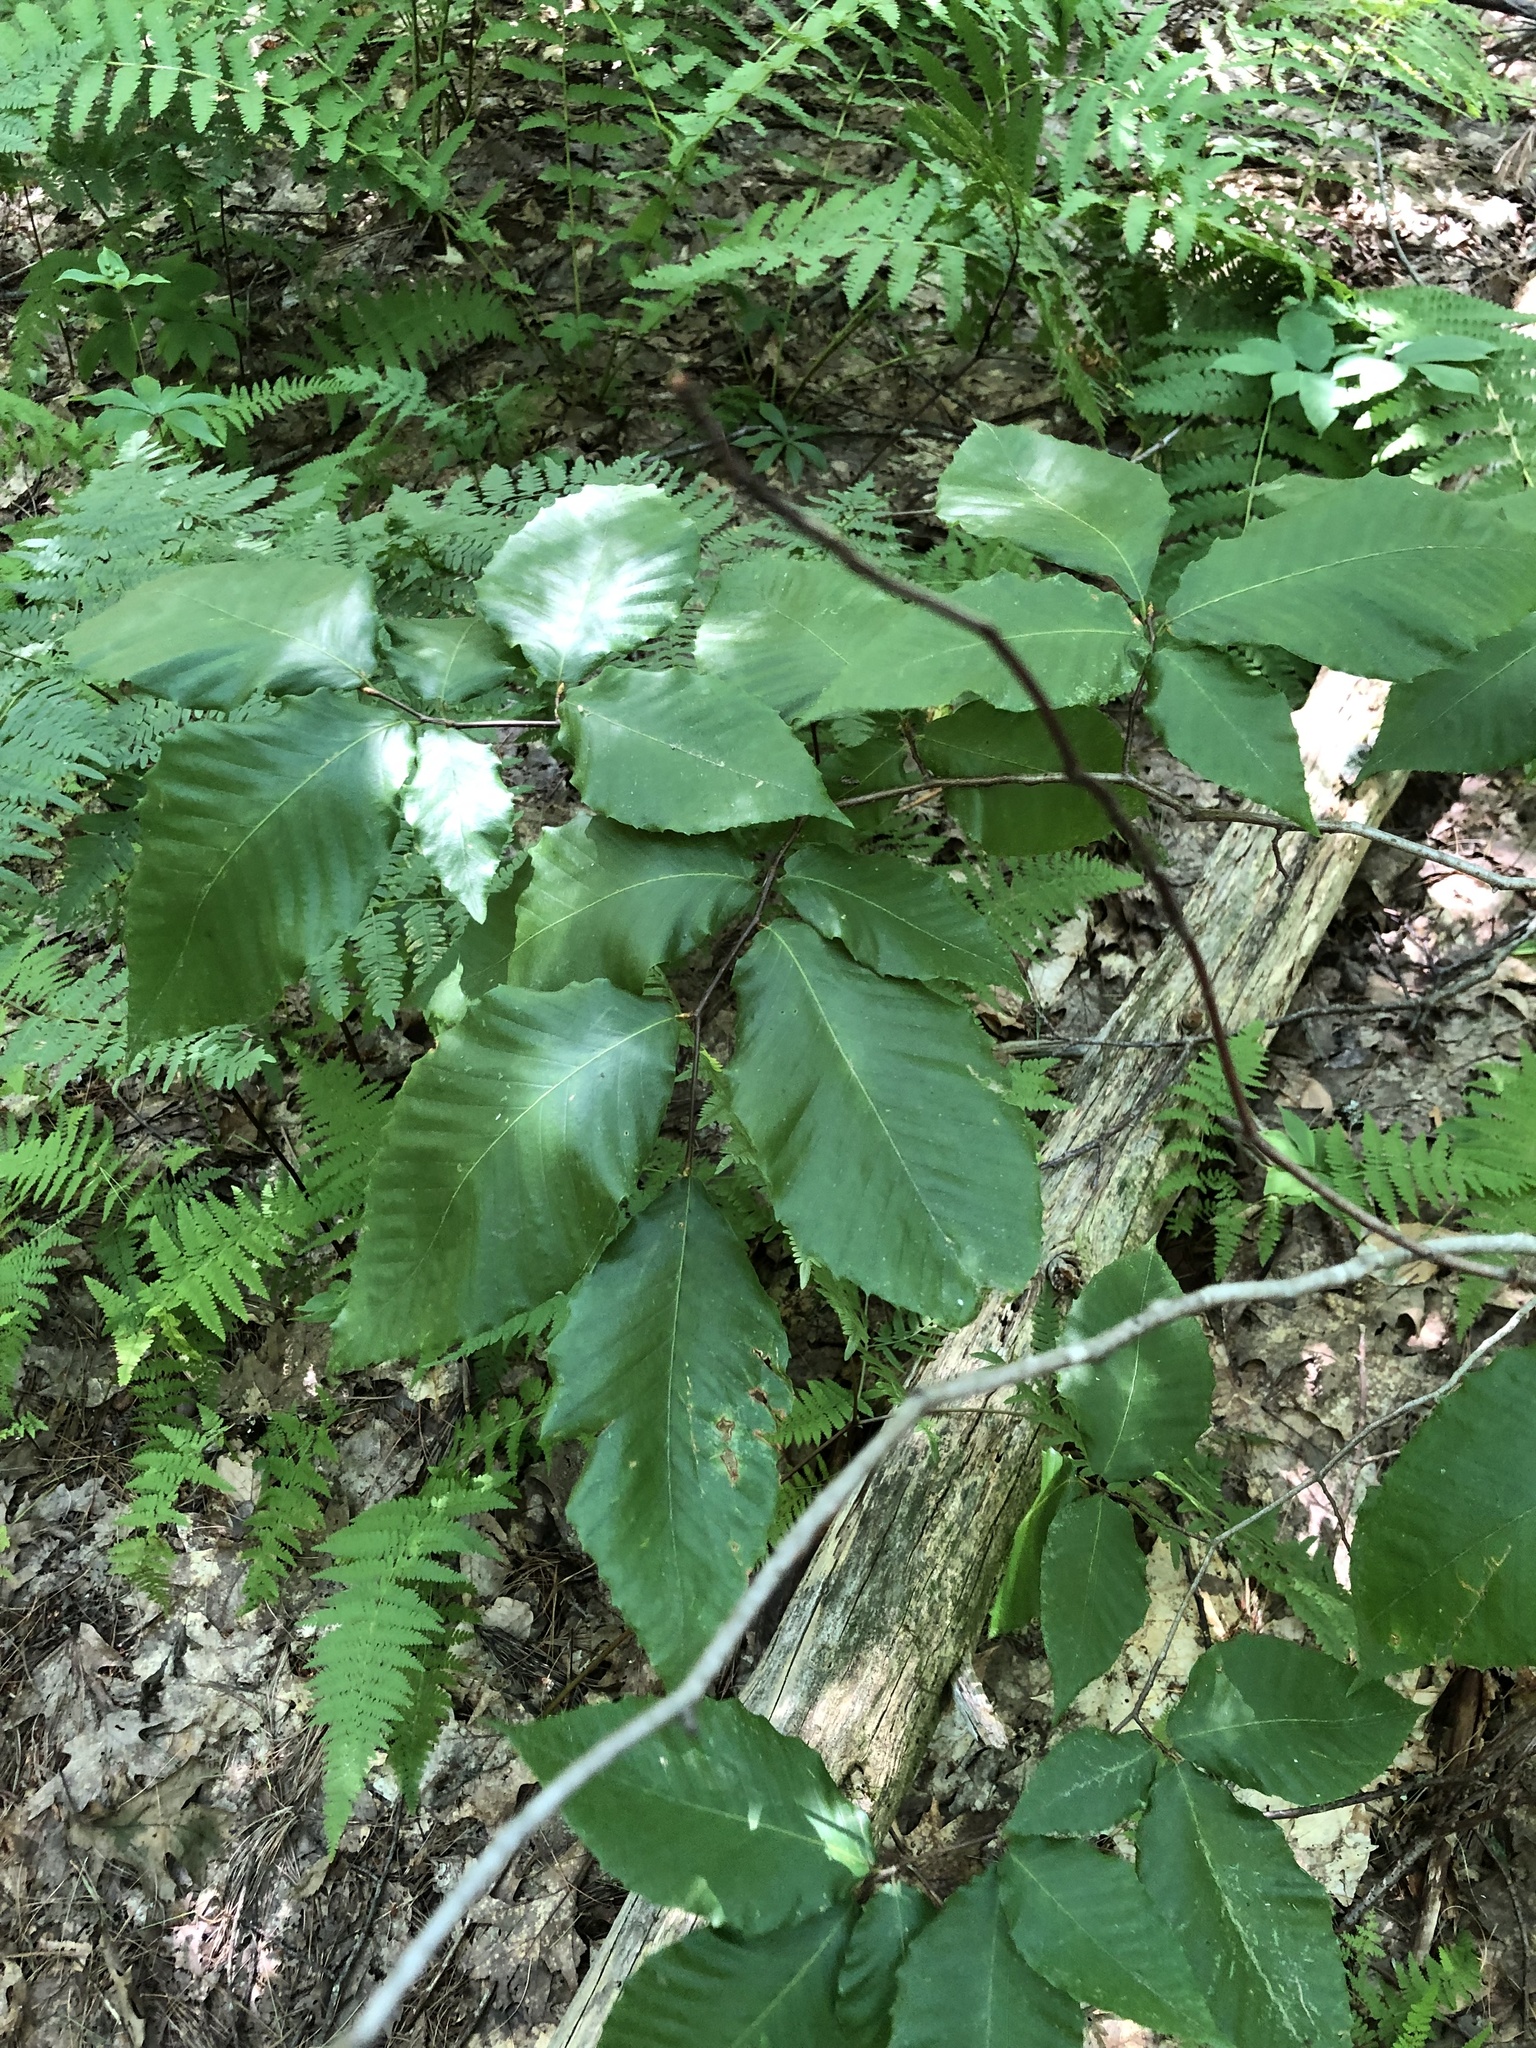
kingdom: Plantae
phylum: Tracheophyta
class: Magnoliopsida
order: Fagales
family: Fagaceae
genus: Fagus
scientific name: Fagus grandifolia
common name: American beech
